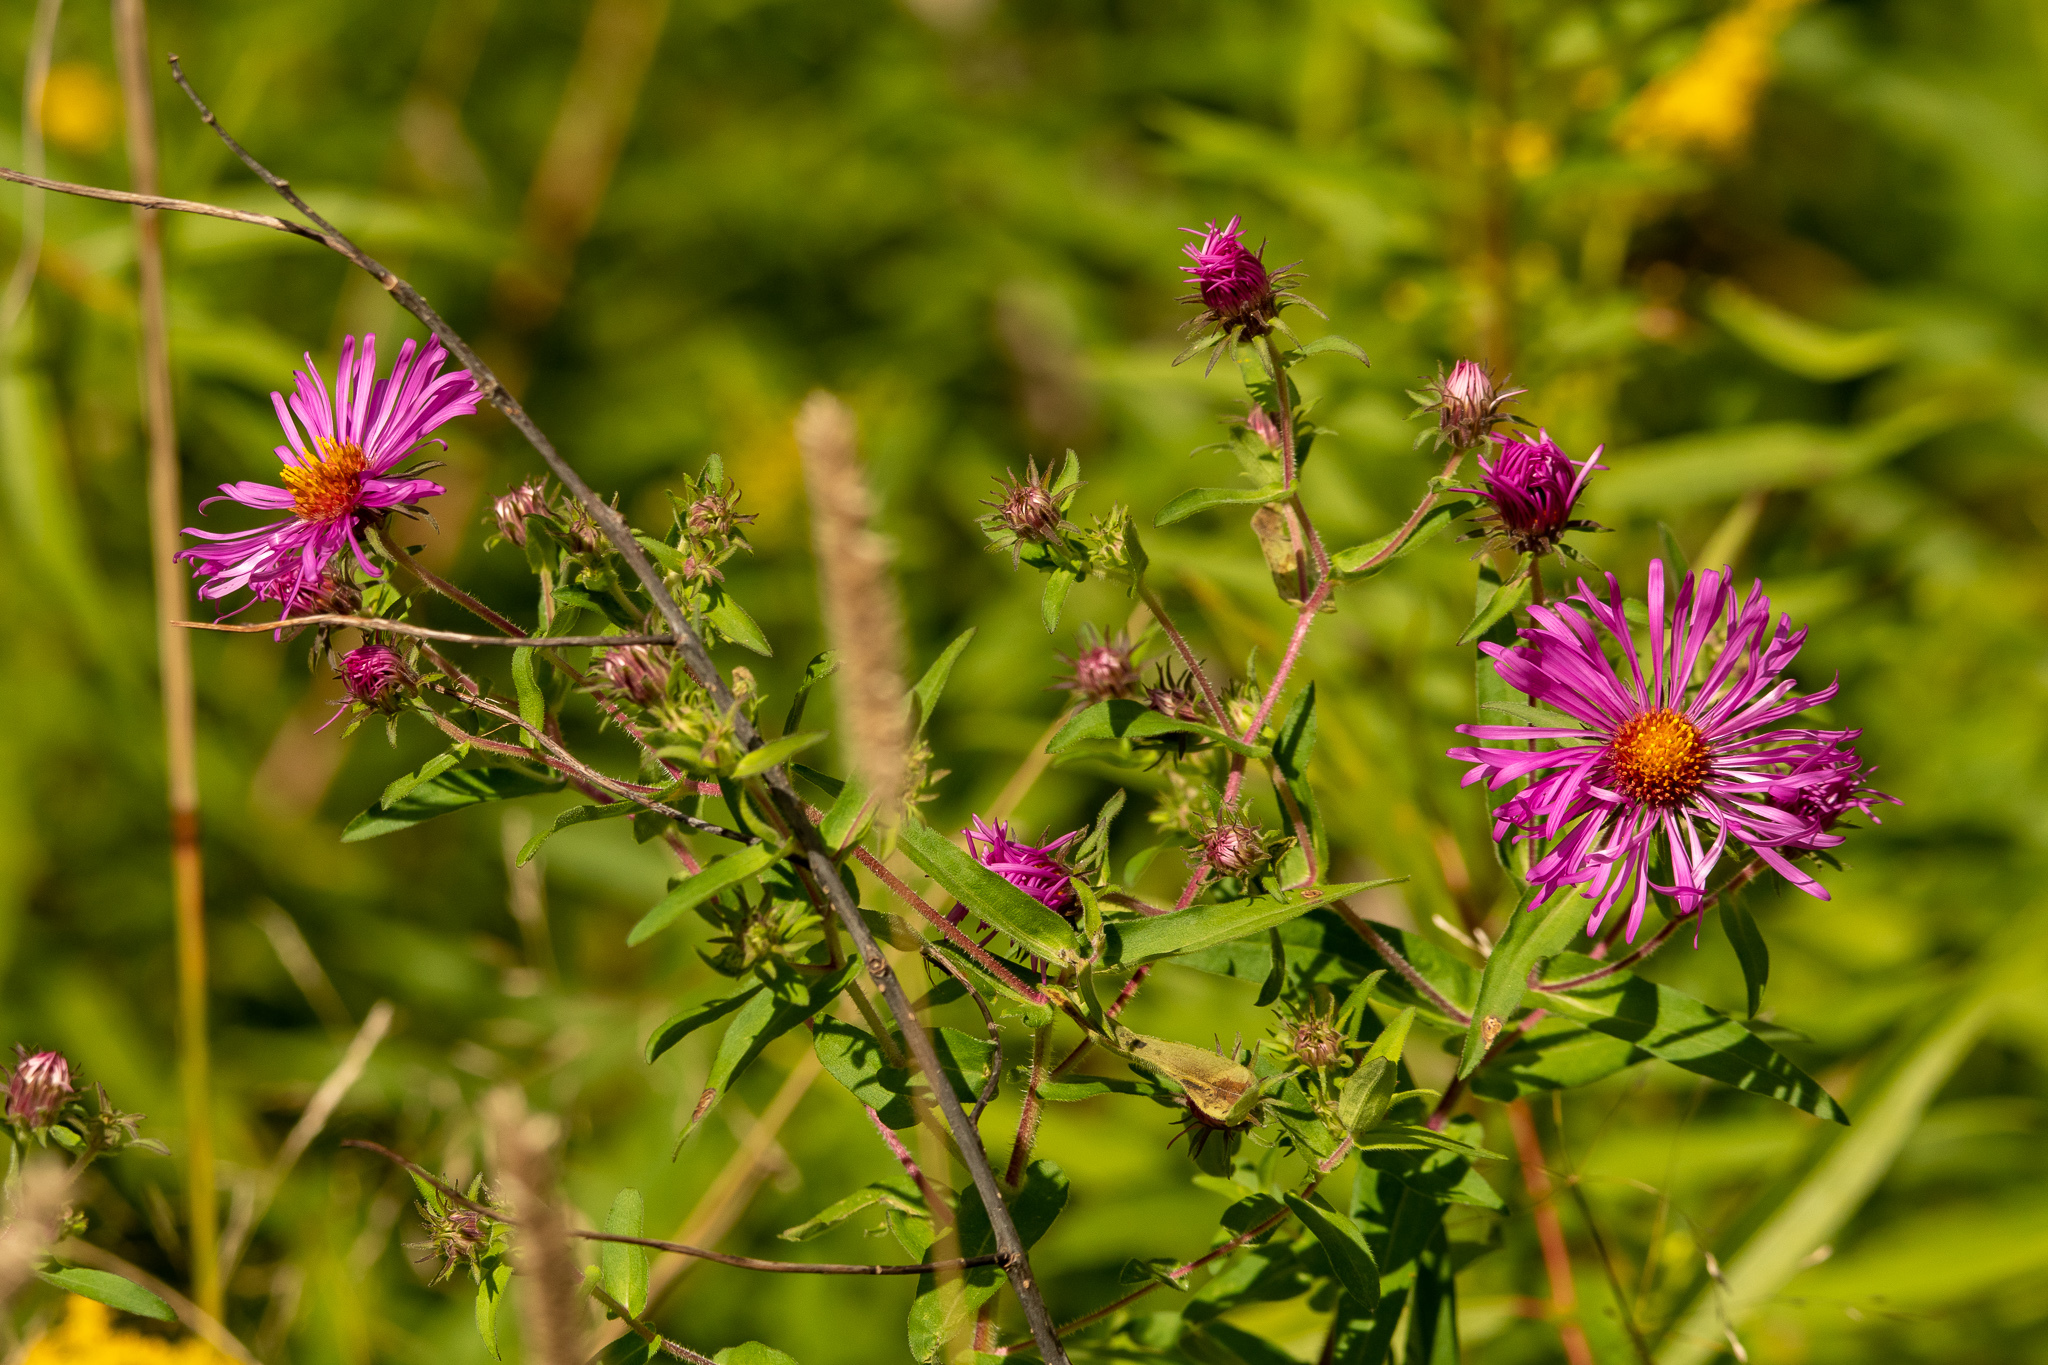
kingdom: Plantae
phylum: Tracheophyta
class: Magnoliopsida
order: Asterales
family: Asteraceae
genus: Symphyotrichum
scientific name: Symphyotrichum novae-angliae
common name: Michaelmas daisy
